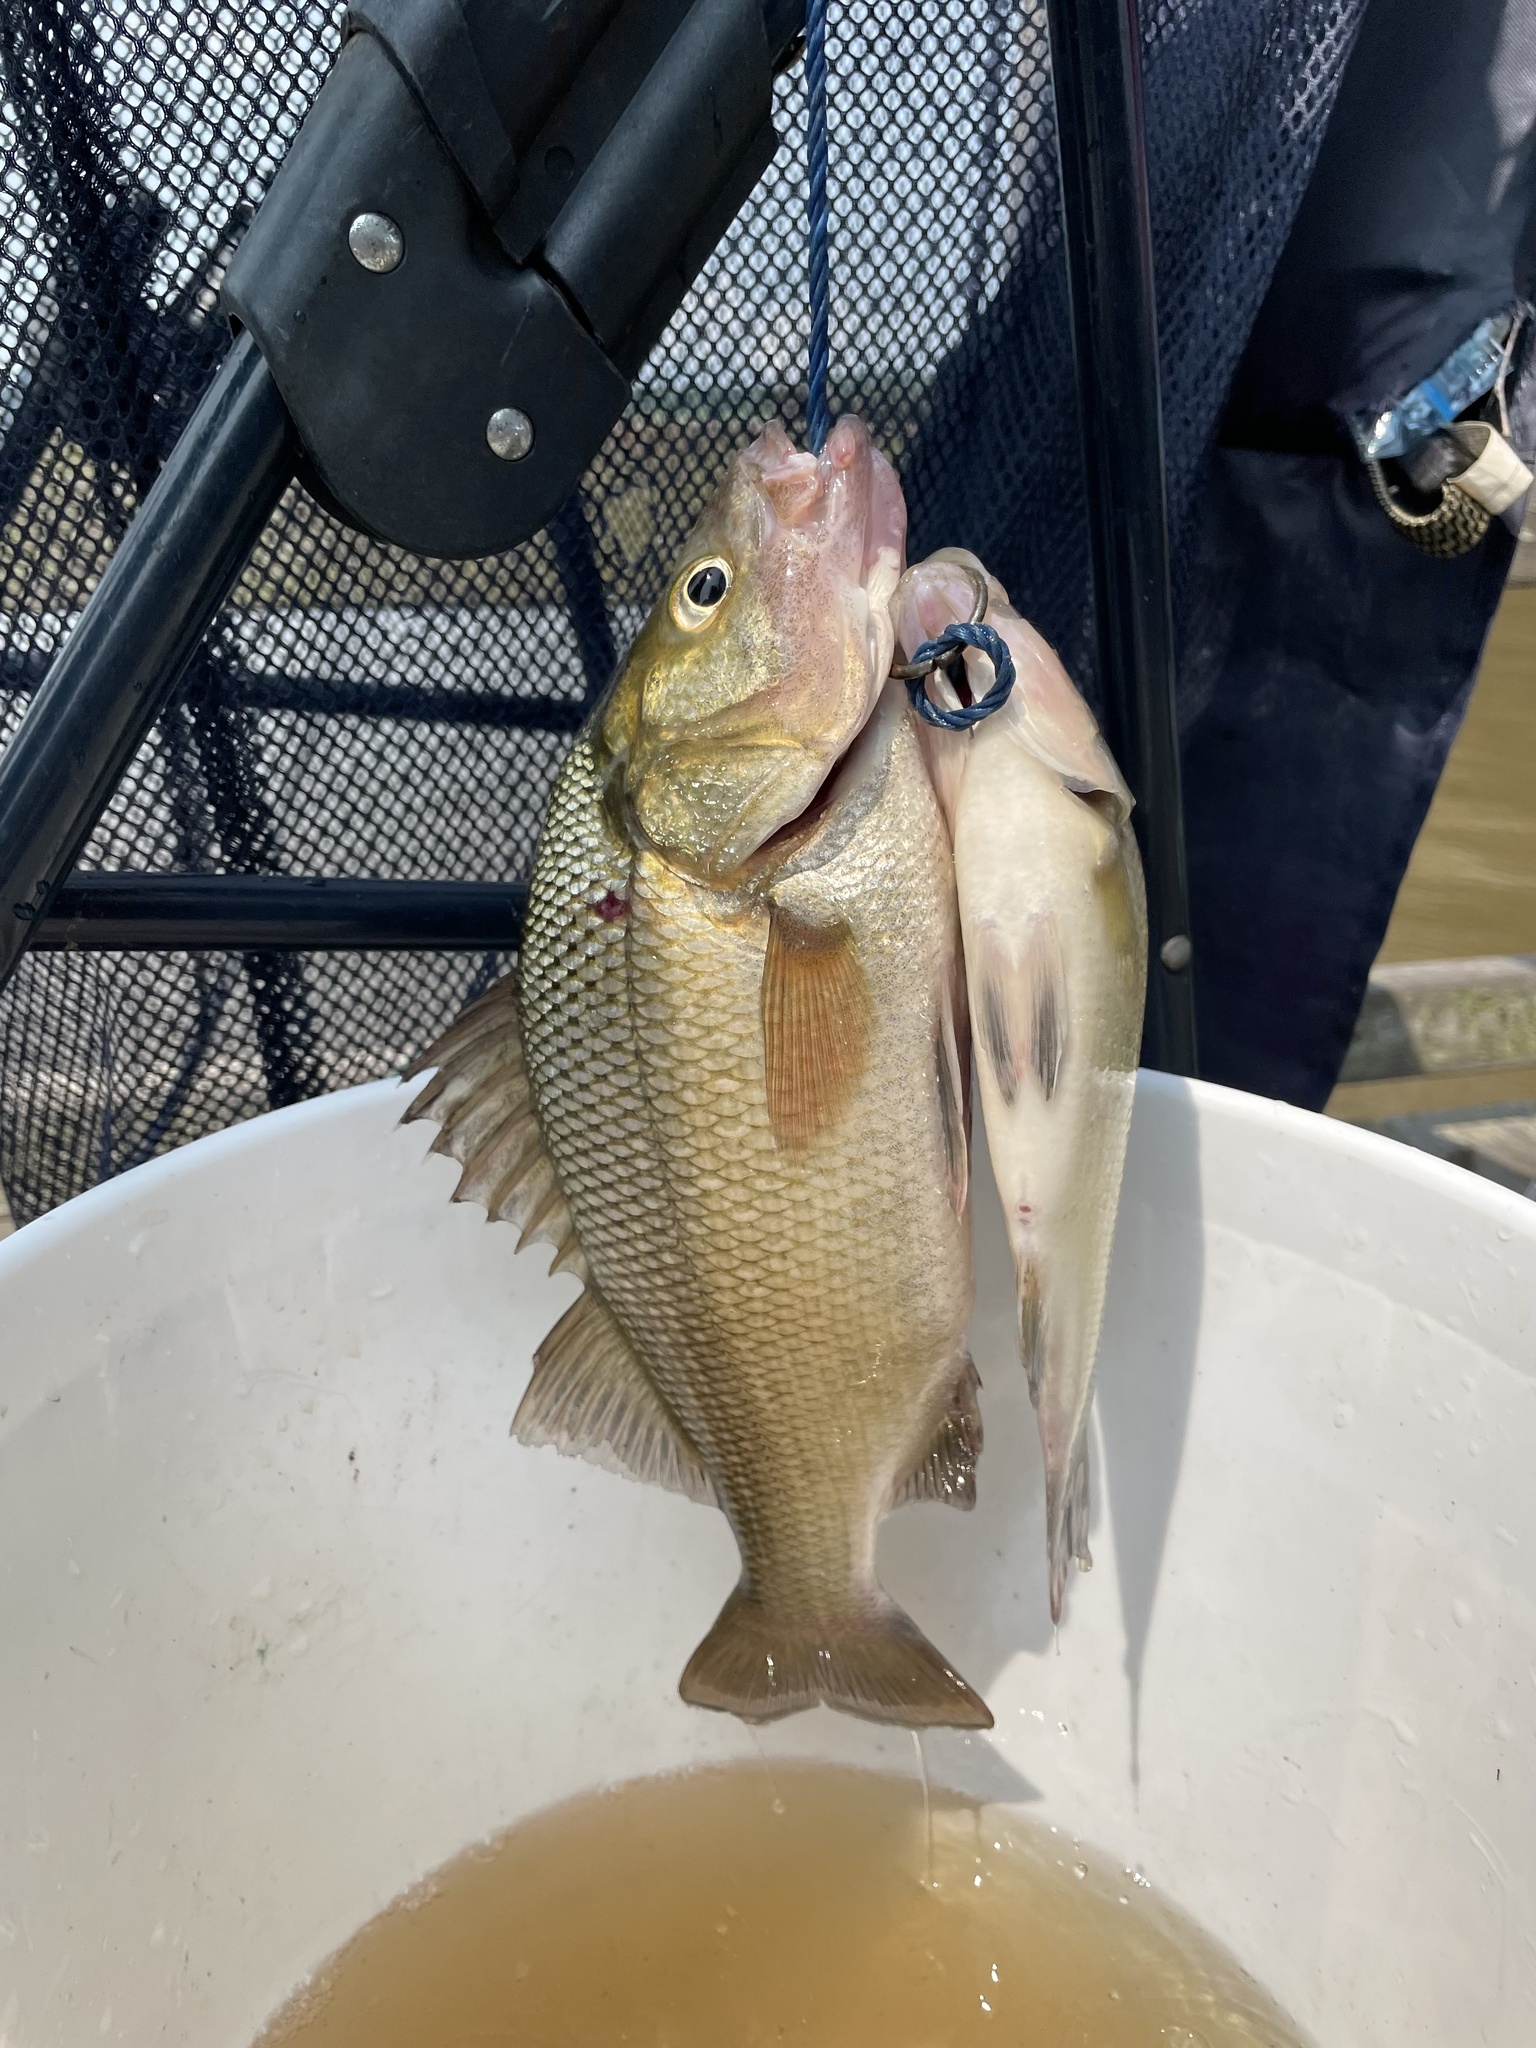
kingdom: Animalia
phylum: Chordata
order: Perciformes
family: Moronidae
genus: Morone
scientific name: Morone americana
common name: White perch
